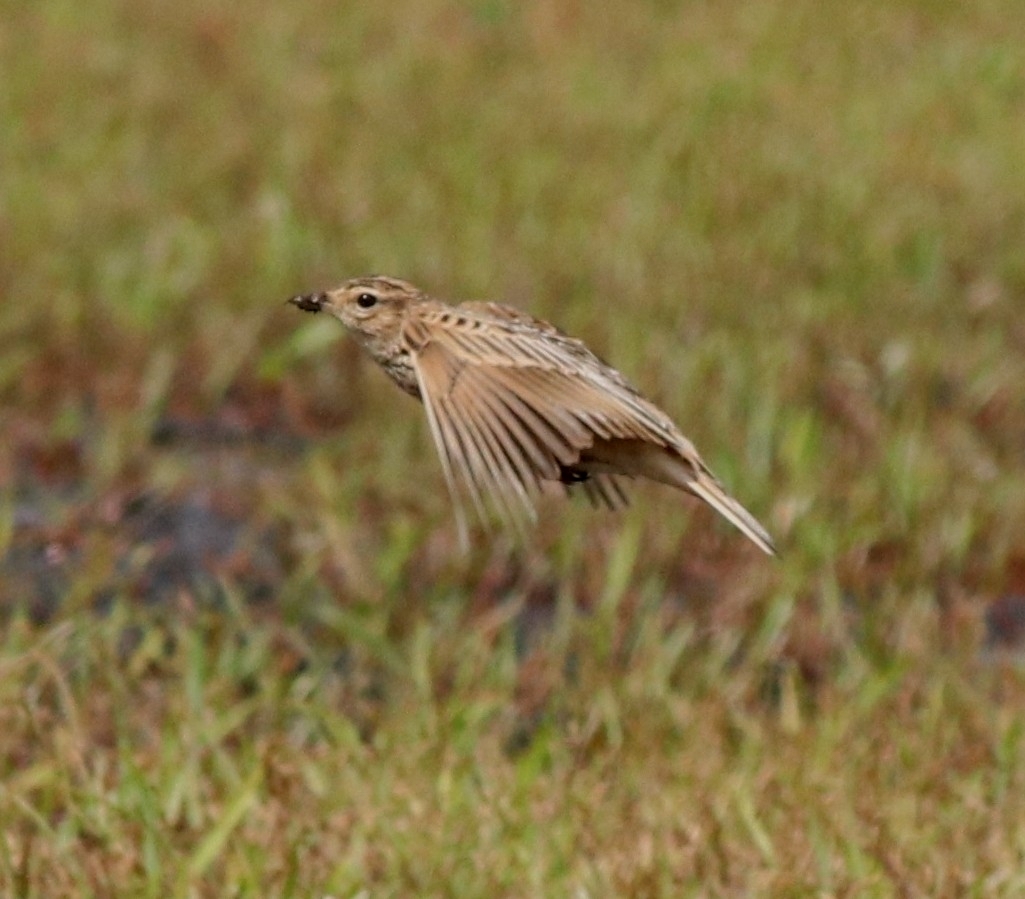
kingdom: Animalia
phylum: Chordata
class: Aves
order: Passeriformes
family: Alaudidae
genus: Alauda
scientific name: Alauda gulgula
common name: Oriental skylark
